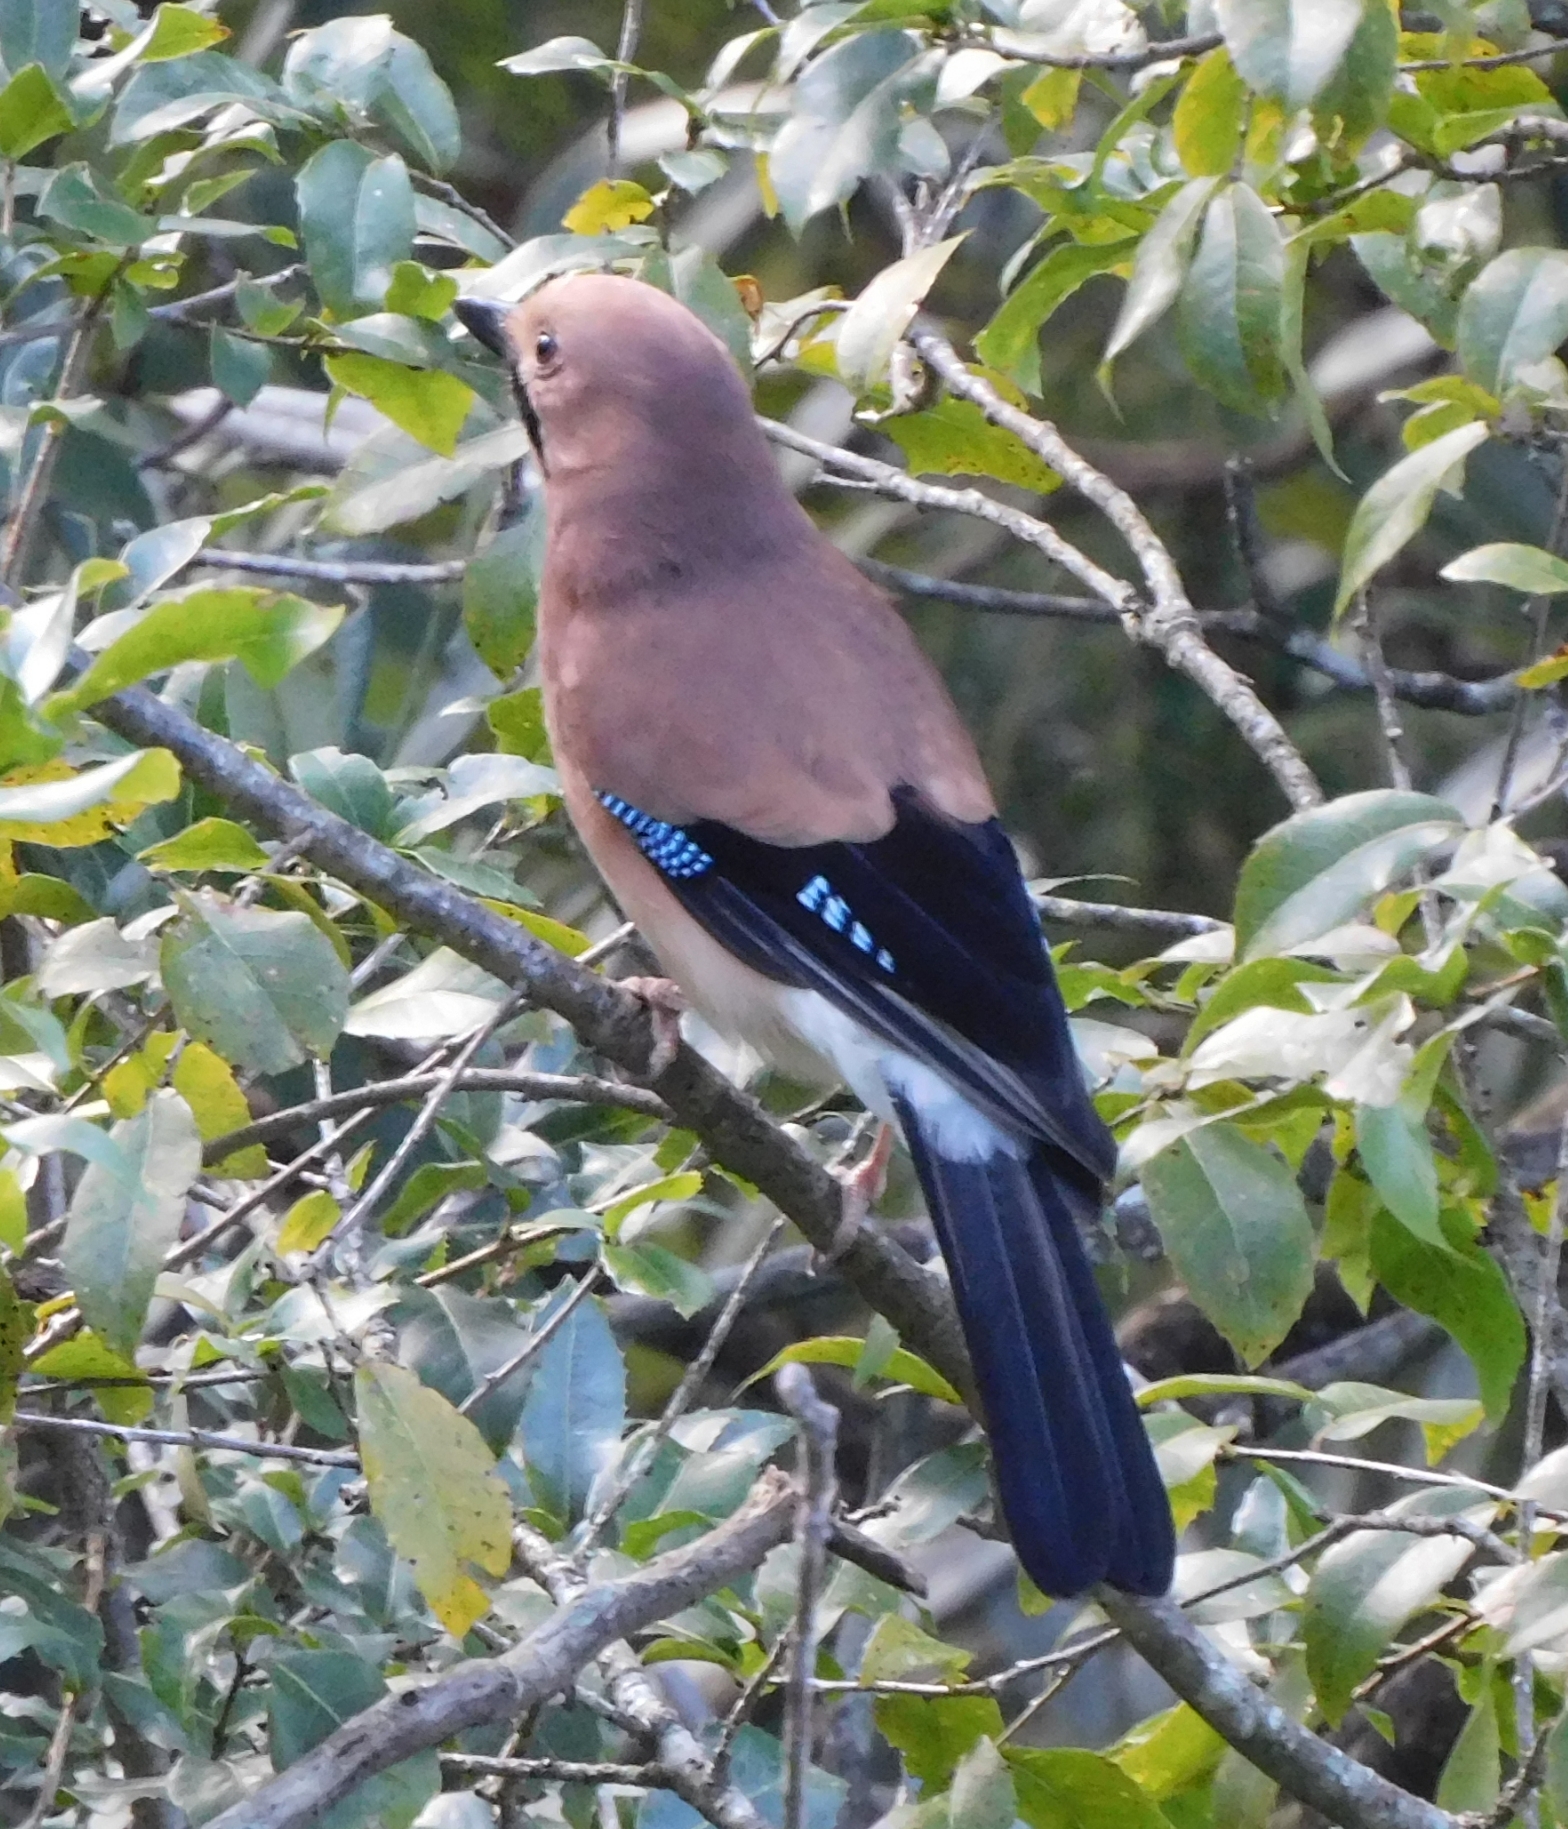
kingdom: Animalia
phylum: Chordata
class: Aves
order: Passeriformes
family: Corvidae
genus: Garrulus
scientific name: Garrulus glandarius
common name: Eurasian jay
